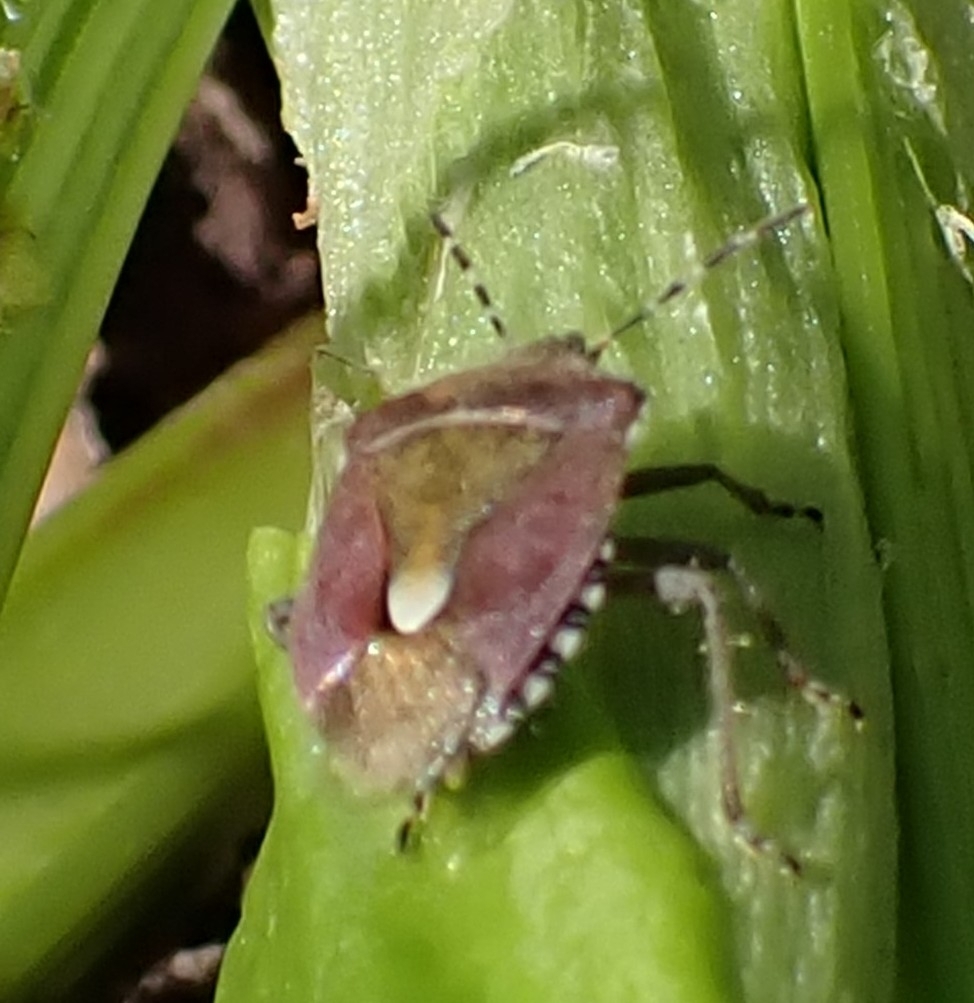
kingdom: Animalia
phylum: Arthropoda
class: Insecta
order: Hemiptera
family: Pentatomidae
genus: Dolycoris
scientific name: Dolycoris baccarum
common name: Sloe bug
